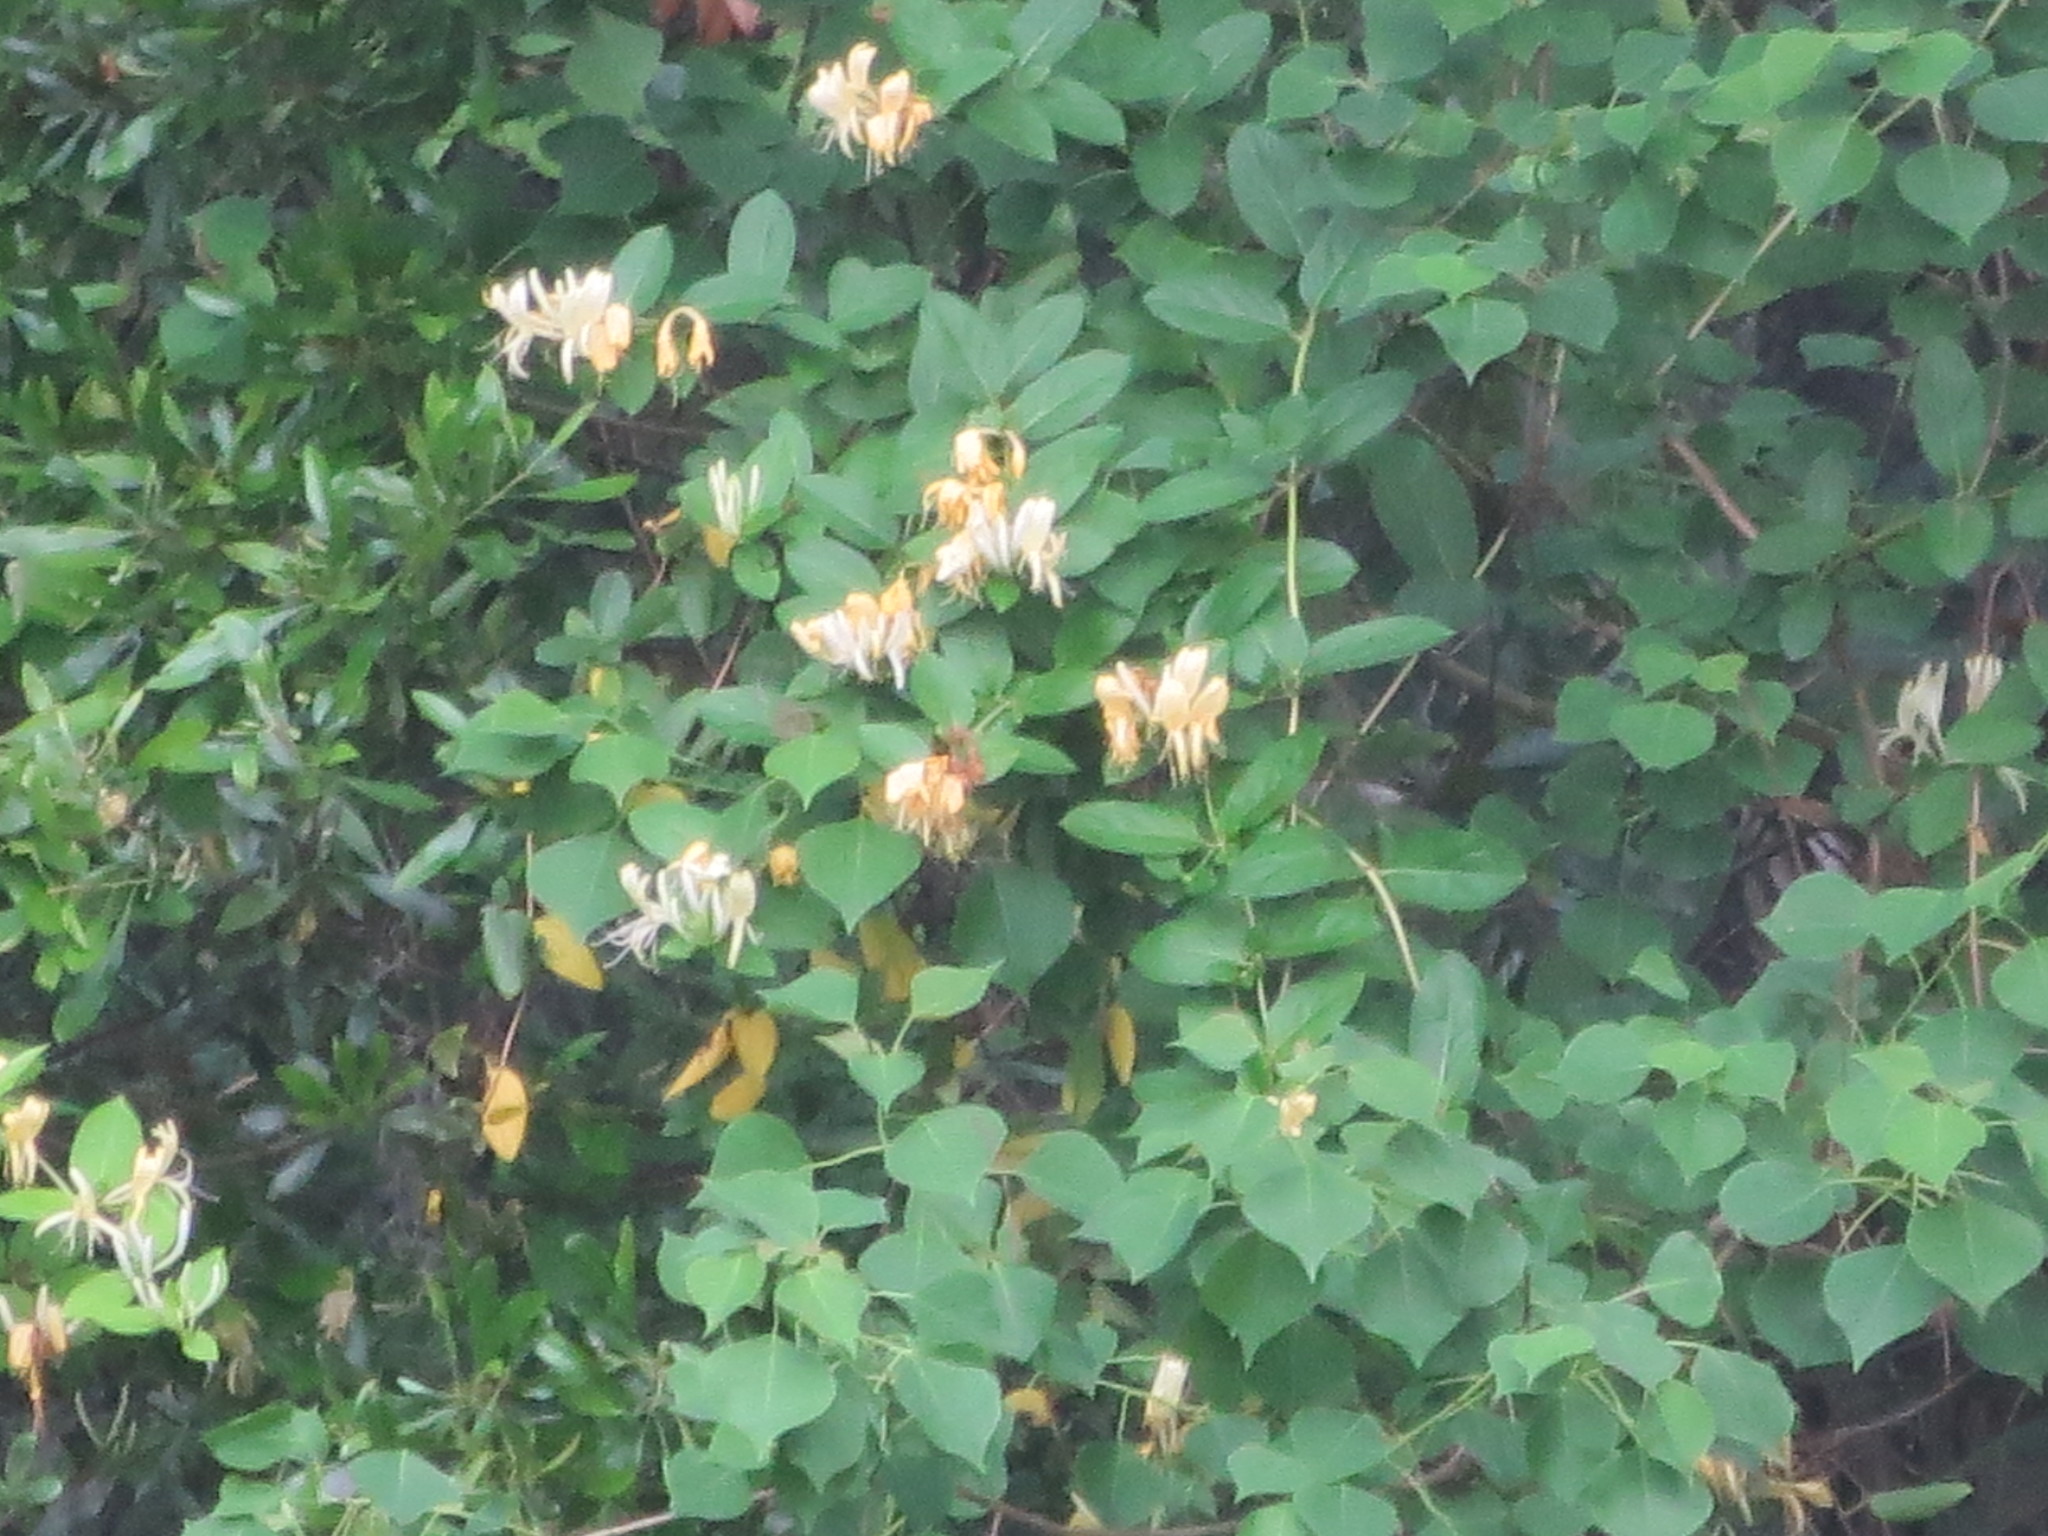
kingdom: Plantae
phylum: Tracheophyta
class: Magnoliopsida
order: Dipsacales
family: Caprifoliaceae
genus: Lonicera
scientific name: Lonicera japonica
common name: Japanese honeysuckle
